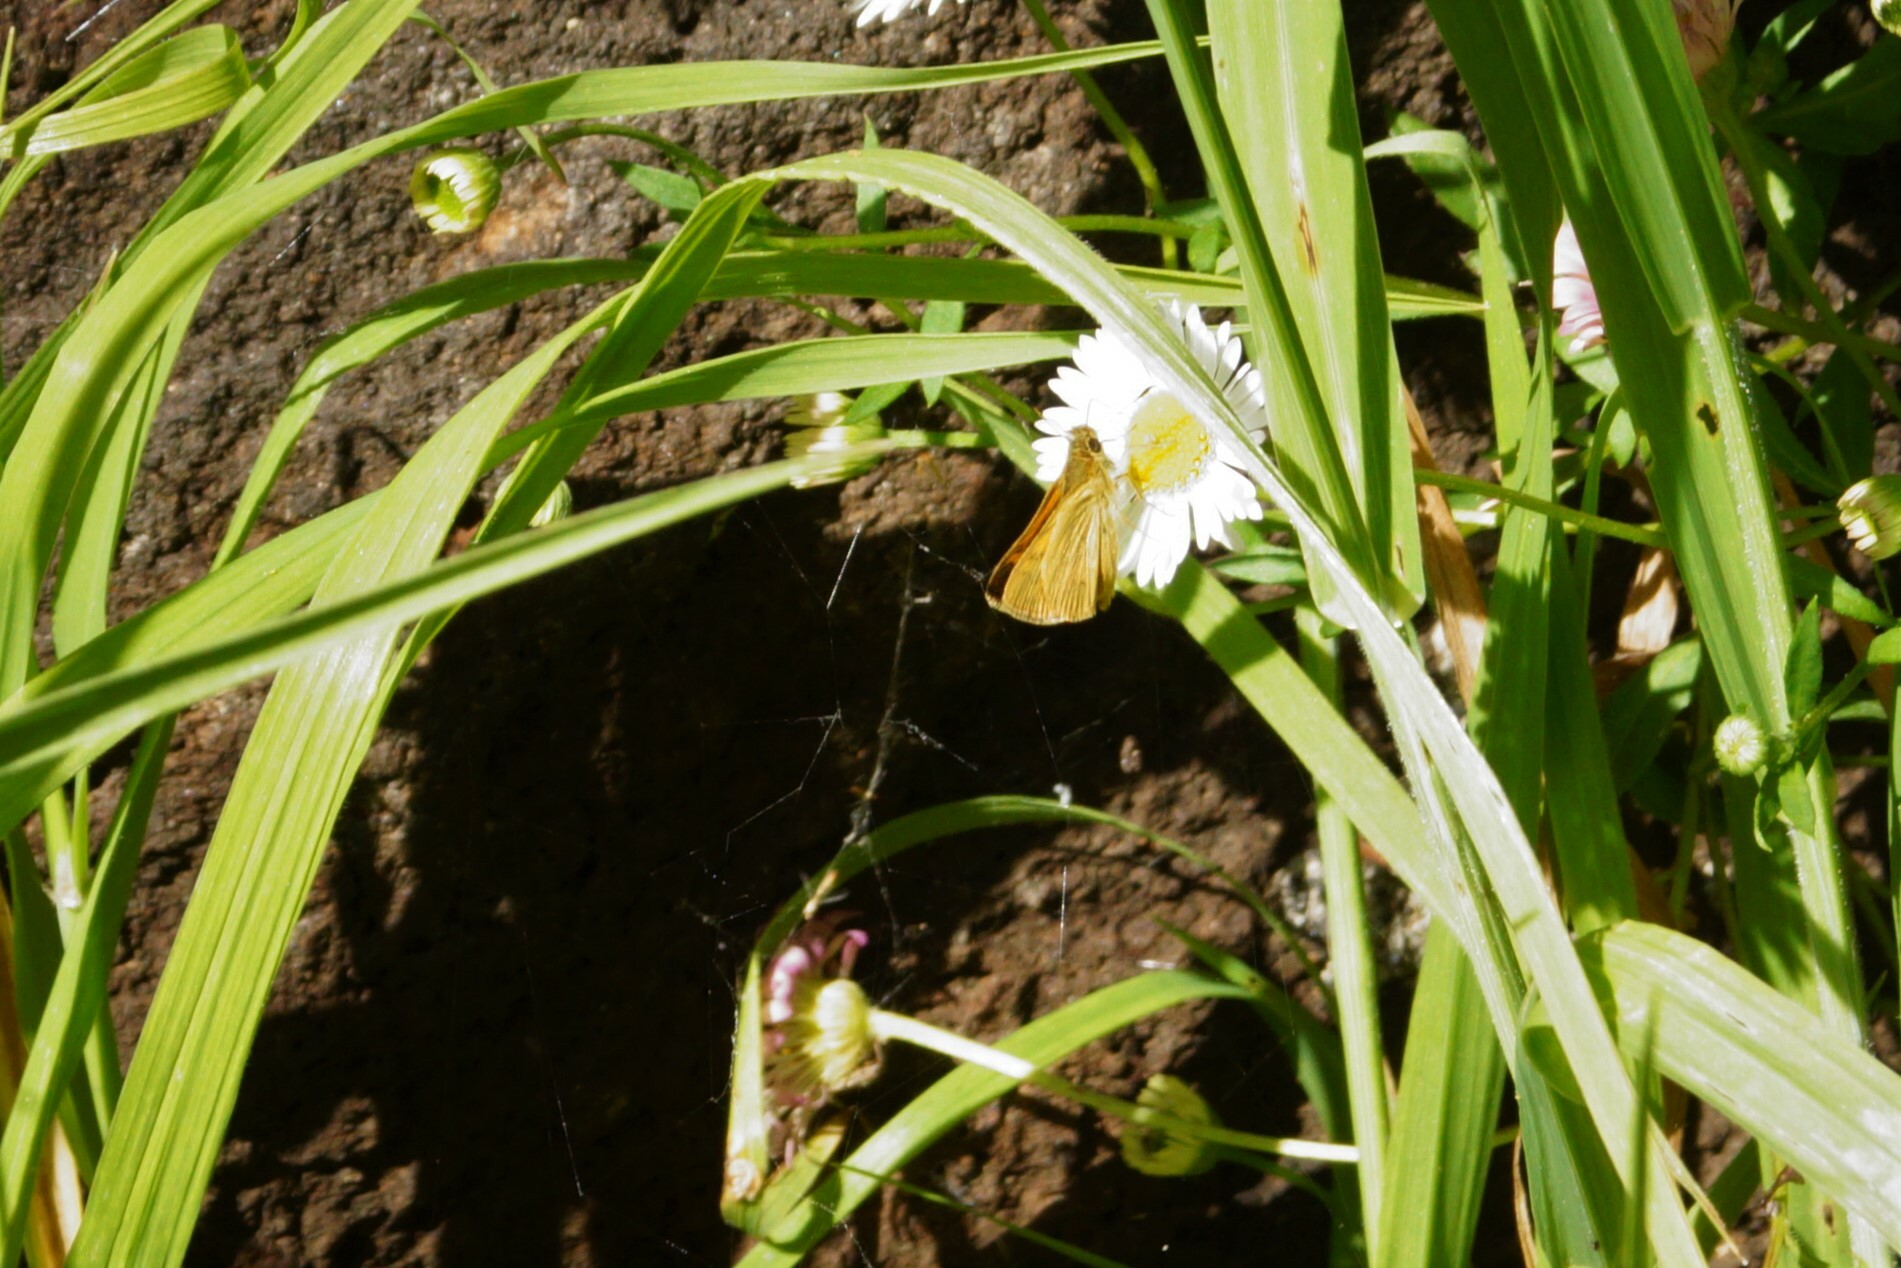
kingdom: Animalia
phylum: Arthropoda
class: Insecta
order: Lepidoptera
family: Hesperiidae
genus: Ocybadistes
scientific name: Ocybadistes walkeri
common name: Yellow-banded dart
